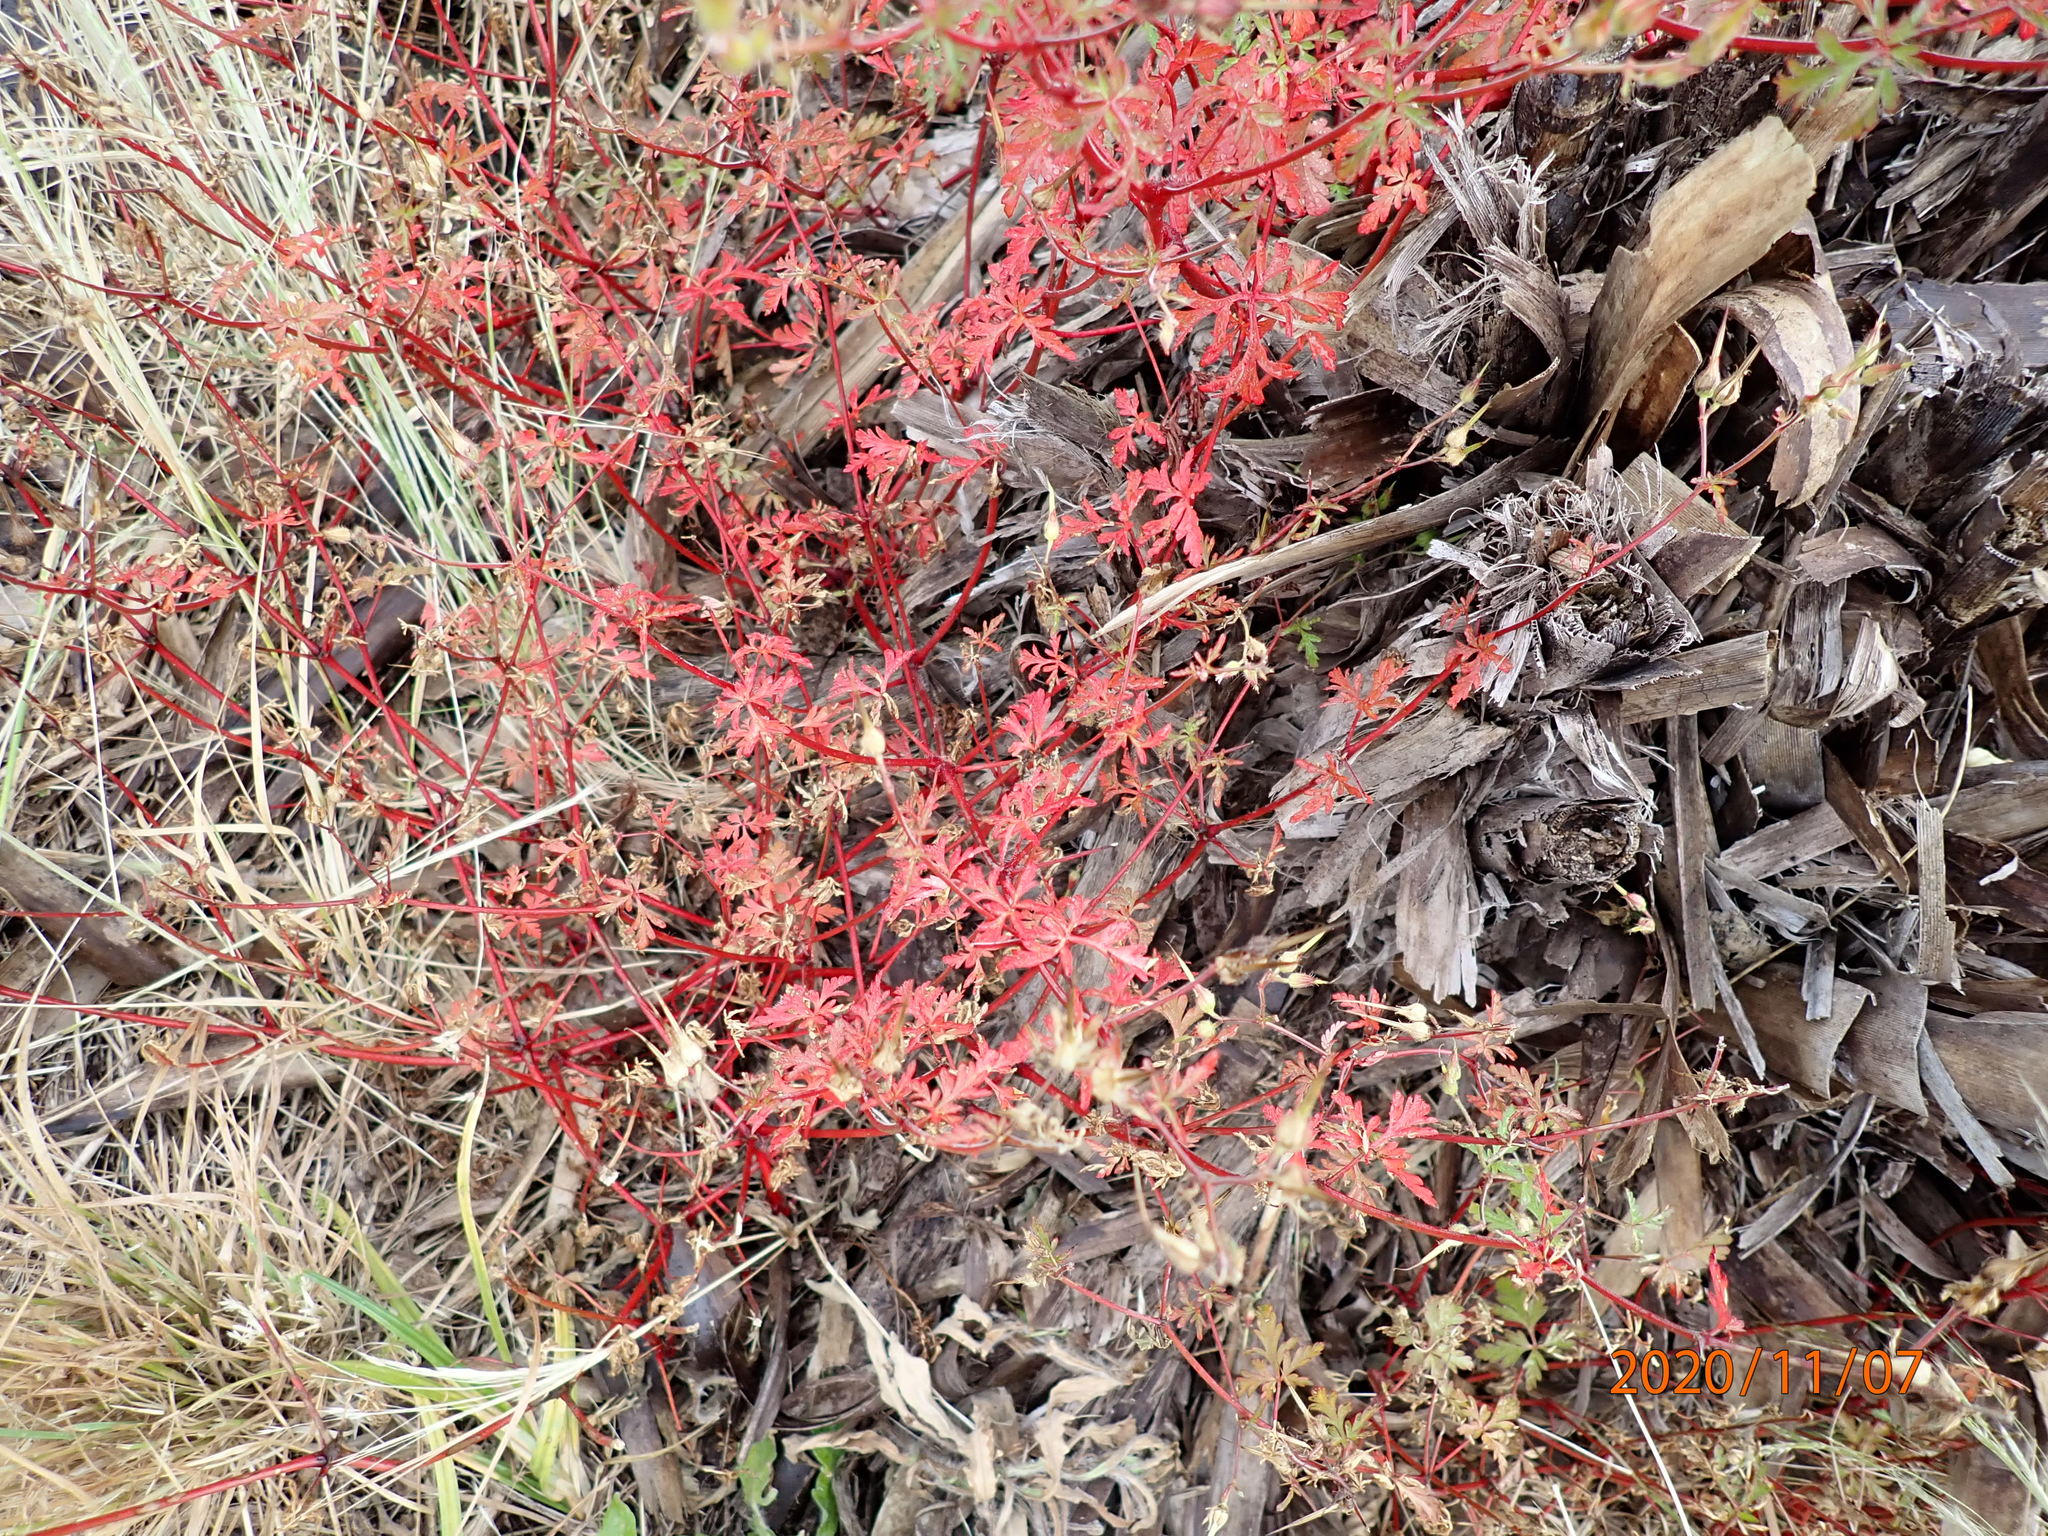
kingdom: Plantae
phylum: Tracheophyta
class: Magnoliopsida
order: Geraniales
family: Geraniaceae
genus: Geranium
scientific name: Geranium robertianum
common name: Herb-robert
